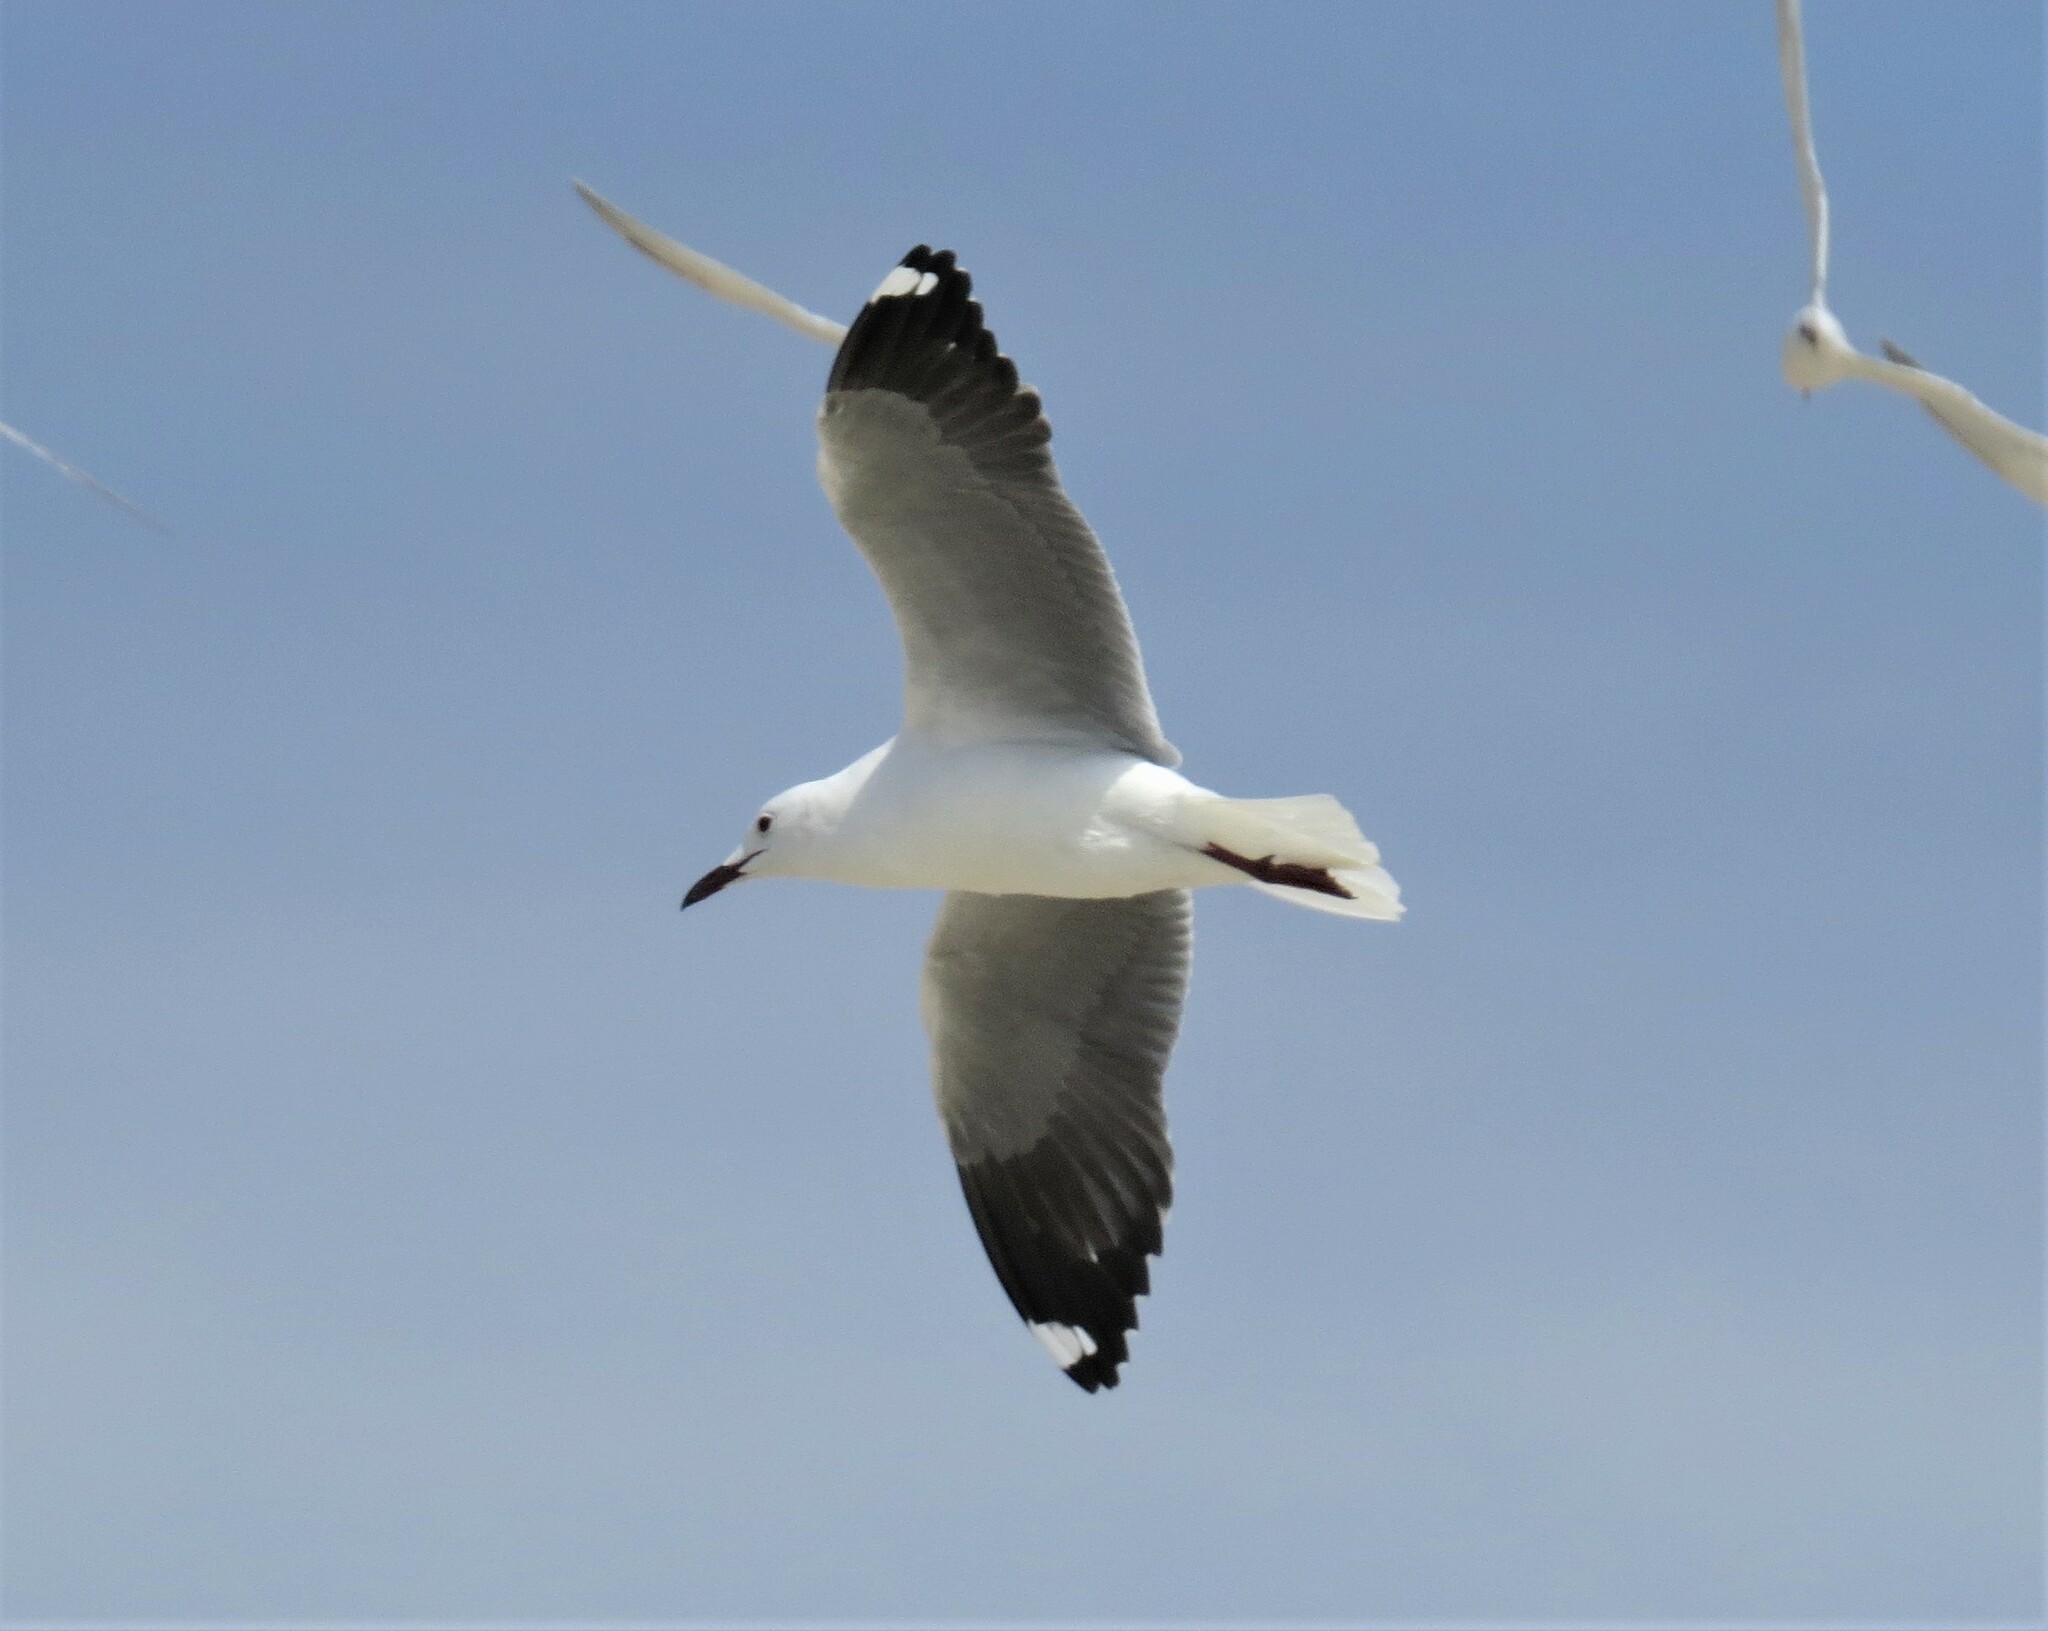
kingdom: Animalia
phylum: Chordata
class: Aves
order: Charadriiformes
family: Laridae
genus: Chroicocephalus
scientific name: Chroicocephalus hartlaubii
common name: Hartlaub's gull
